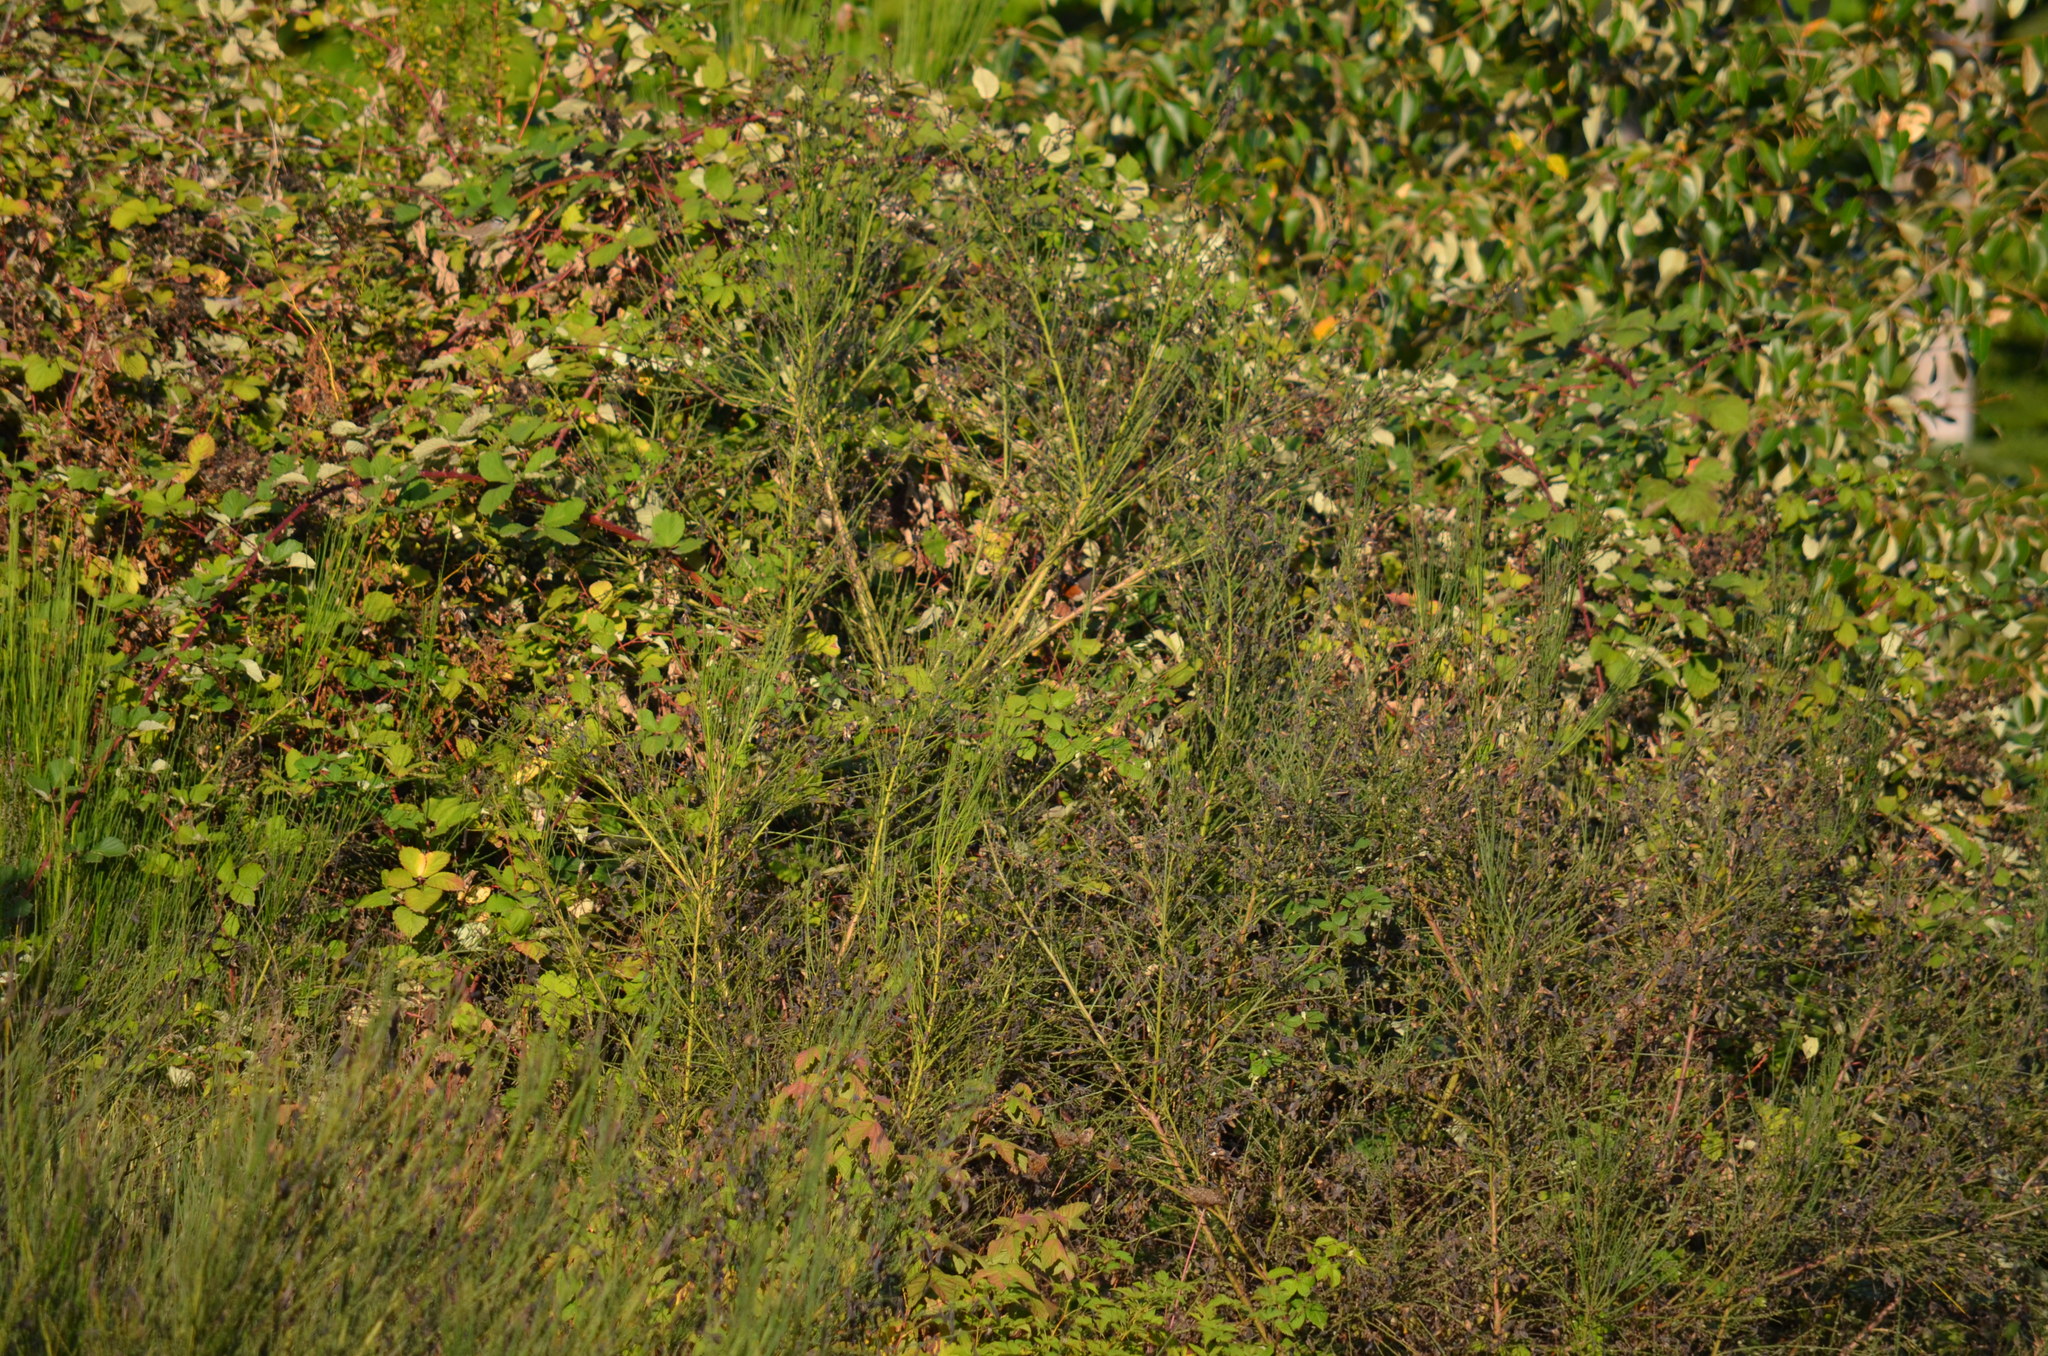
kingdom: Animalia
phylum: Chordata
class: Aves
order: Passeriformes
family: Passerellidae
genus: Pipilo
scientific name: Pipilo maculatus
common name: Spotted towhee
